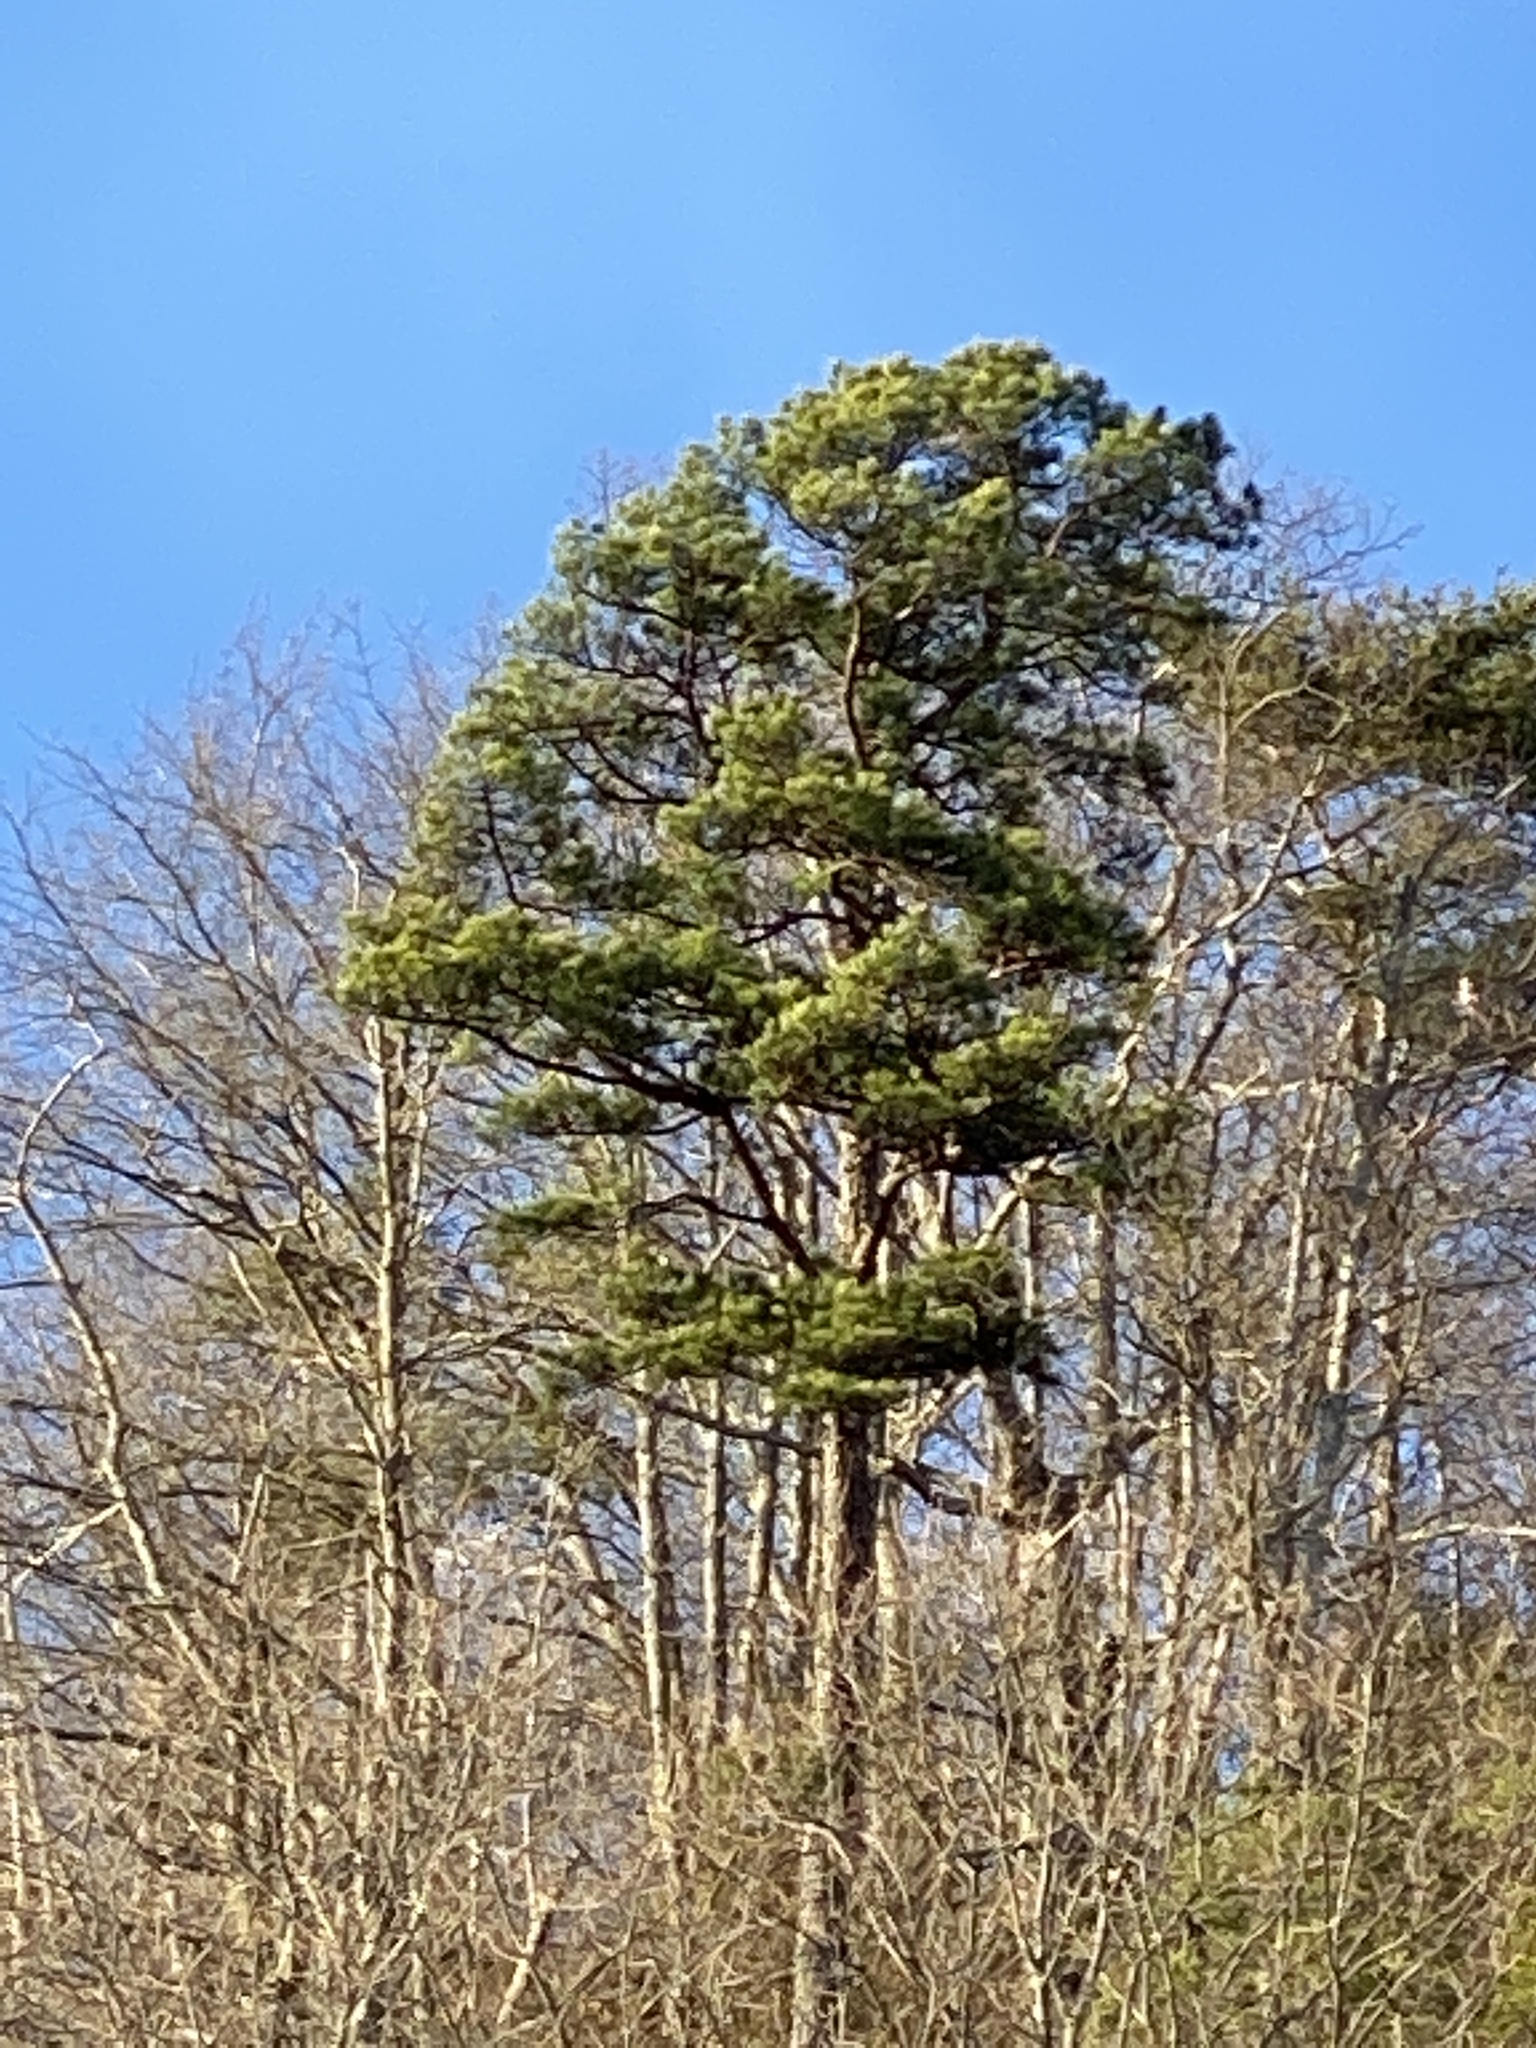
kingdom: Plantae
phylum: Tracheophyta
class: Pinopsida
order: Pinales
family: Pinaceae
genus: Pinus
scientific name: Pinus rigida
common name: Pitch pine
